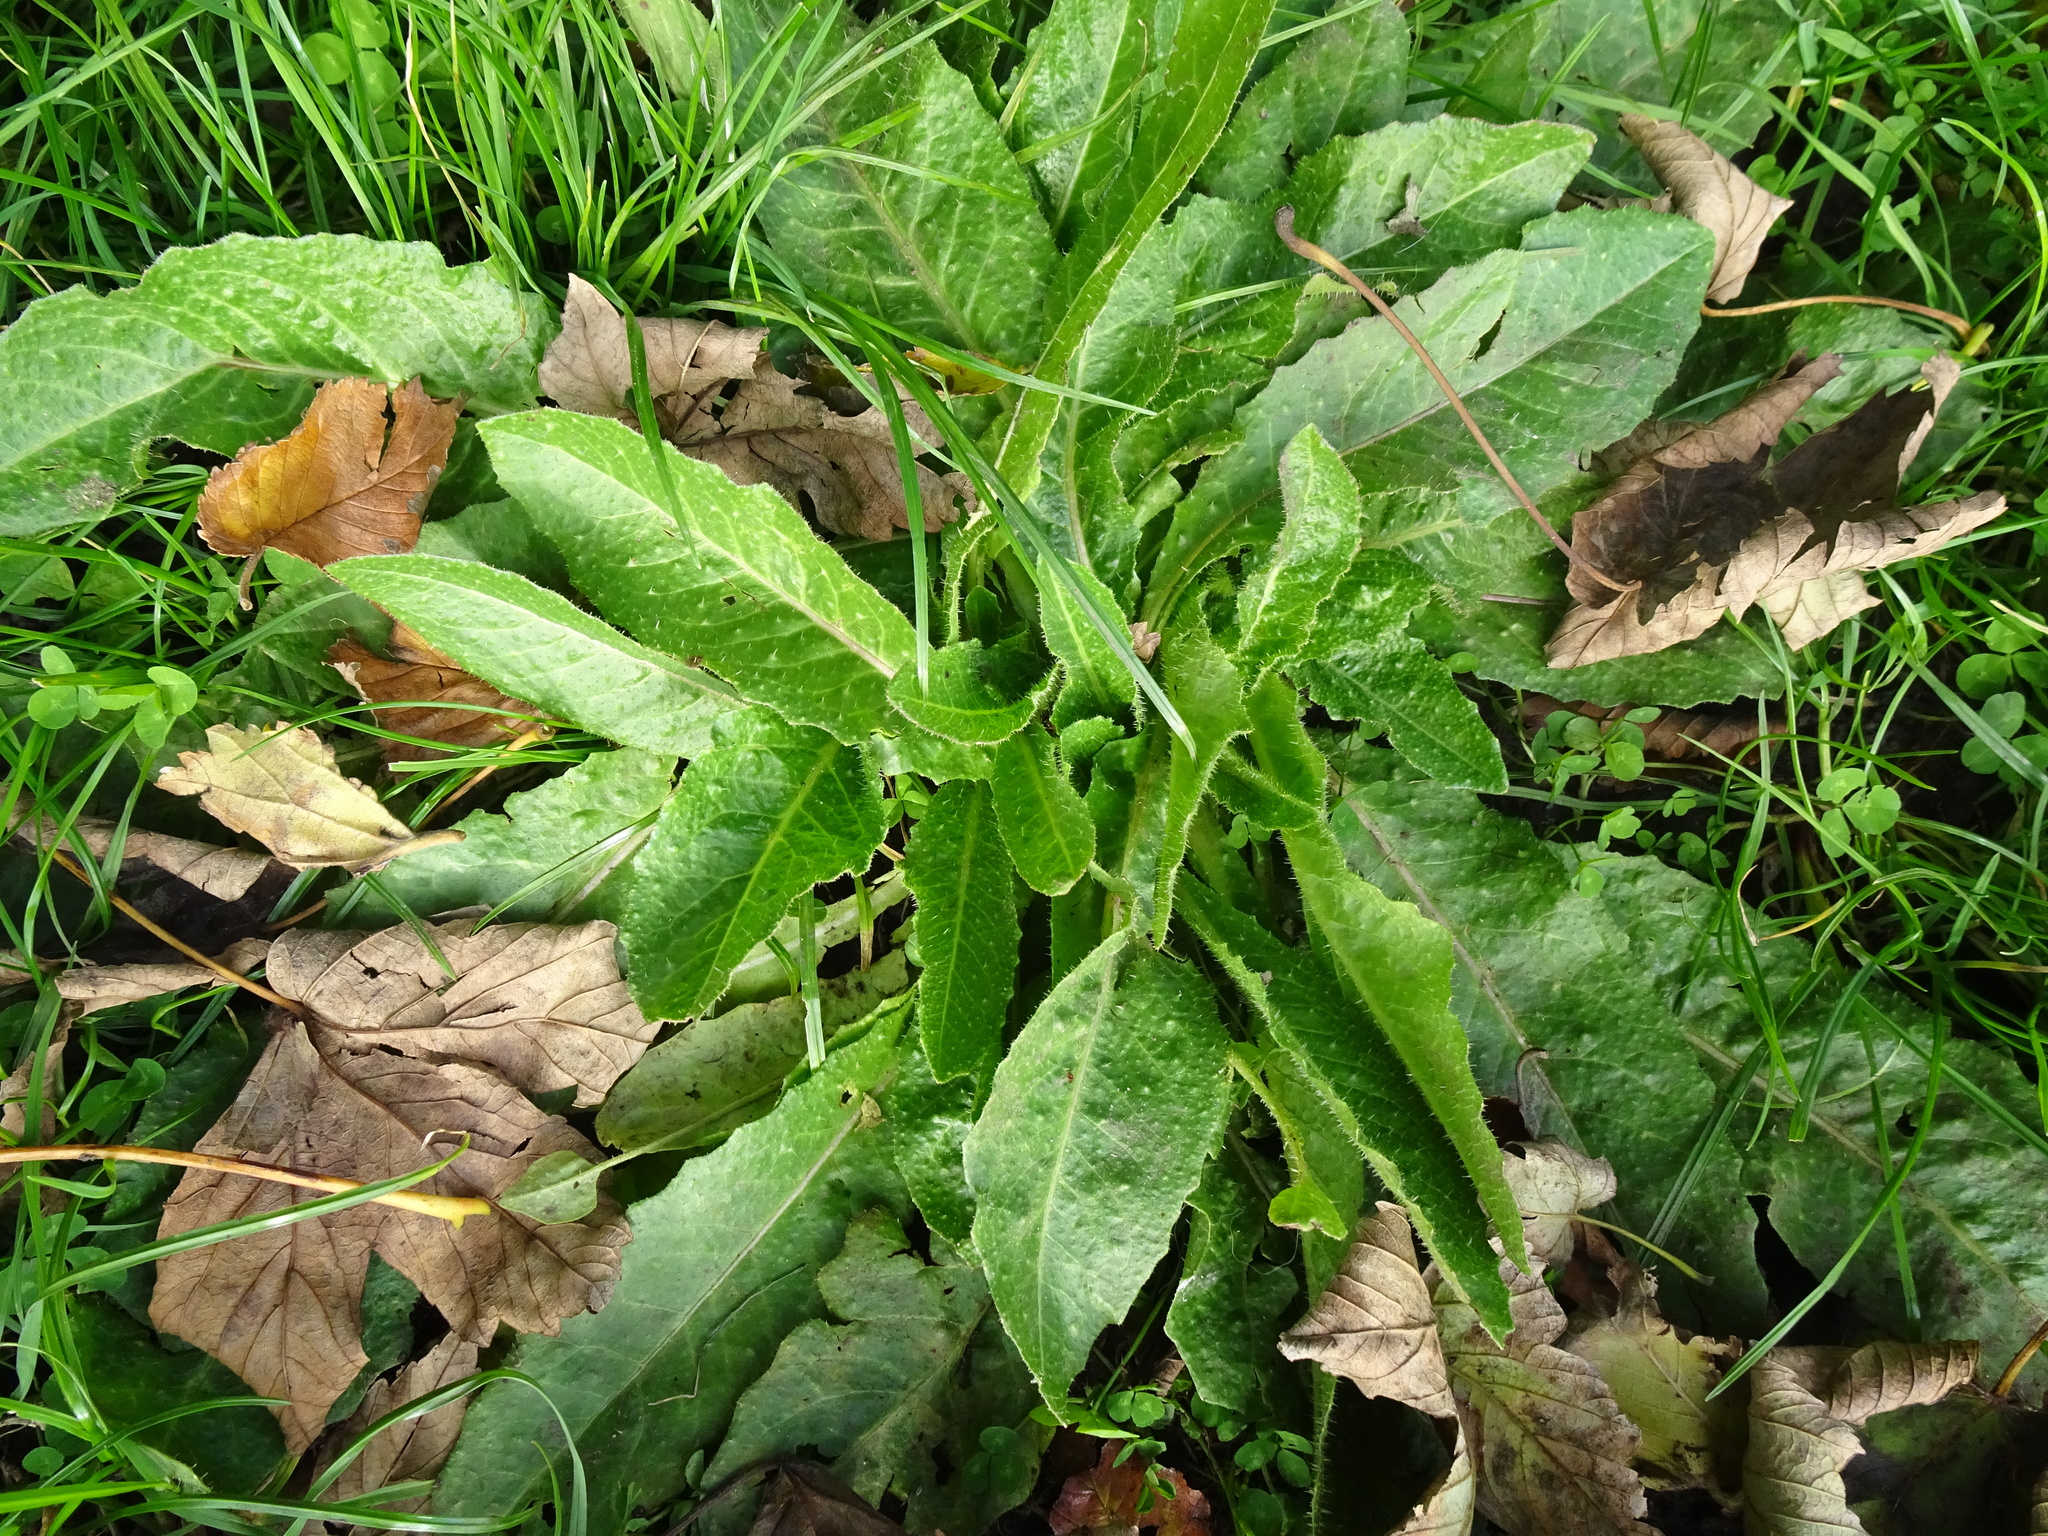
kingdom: Plantae
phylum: Tracheophyta
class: Magnoliopsida
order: Asterales
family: Asteraceae
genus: Helminthotheca
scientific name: Helminthotheca echioides
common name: Ox-tongue
